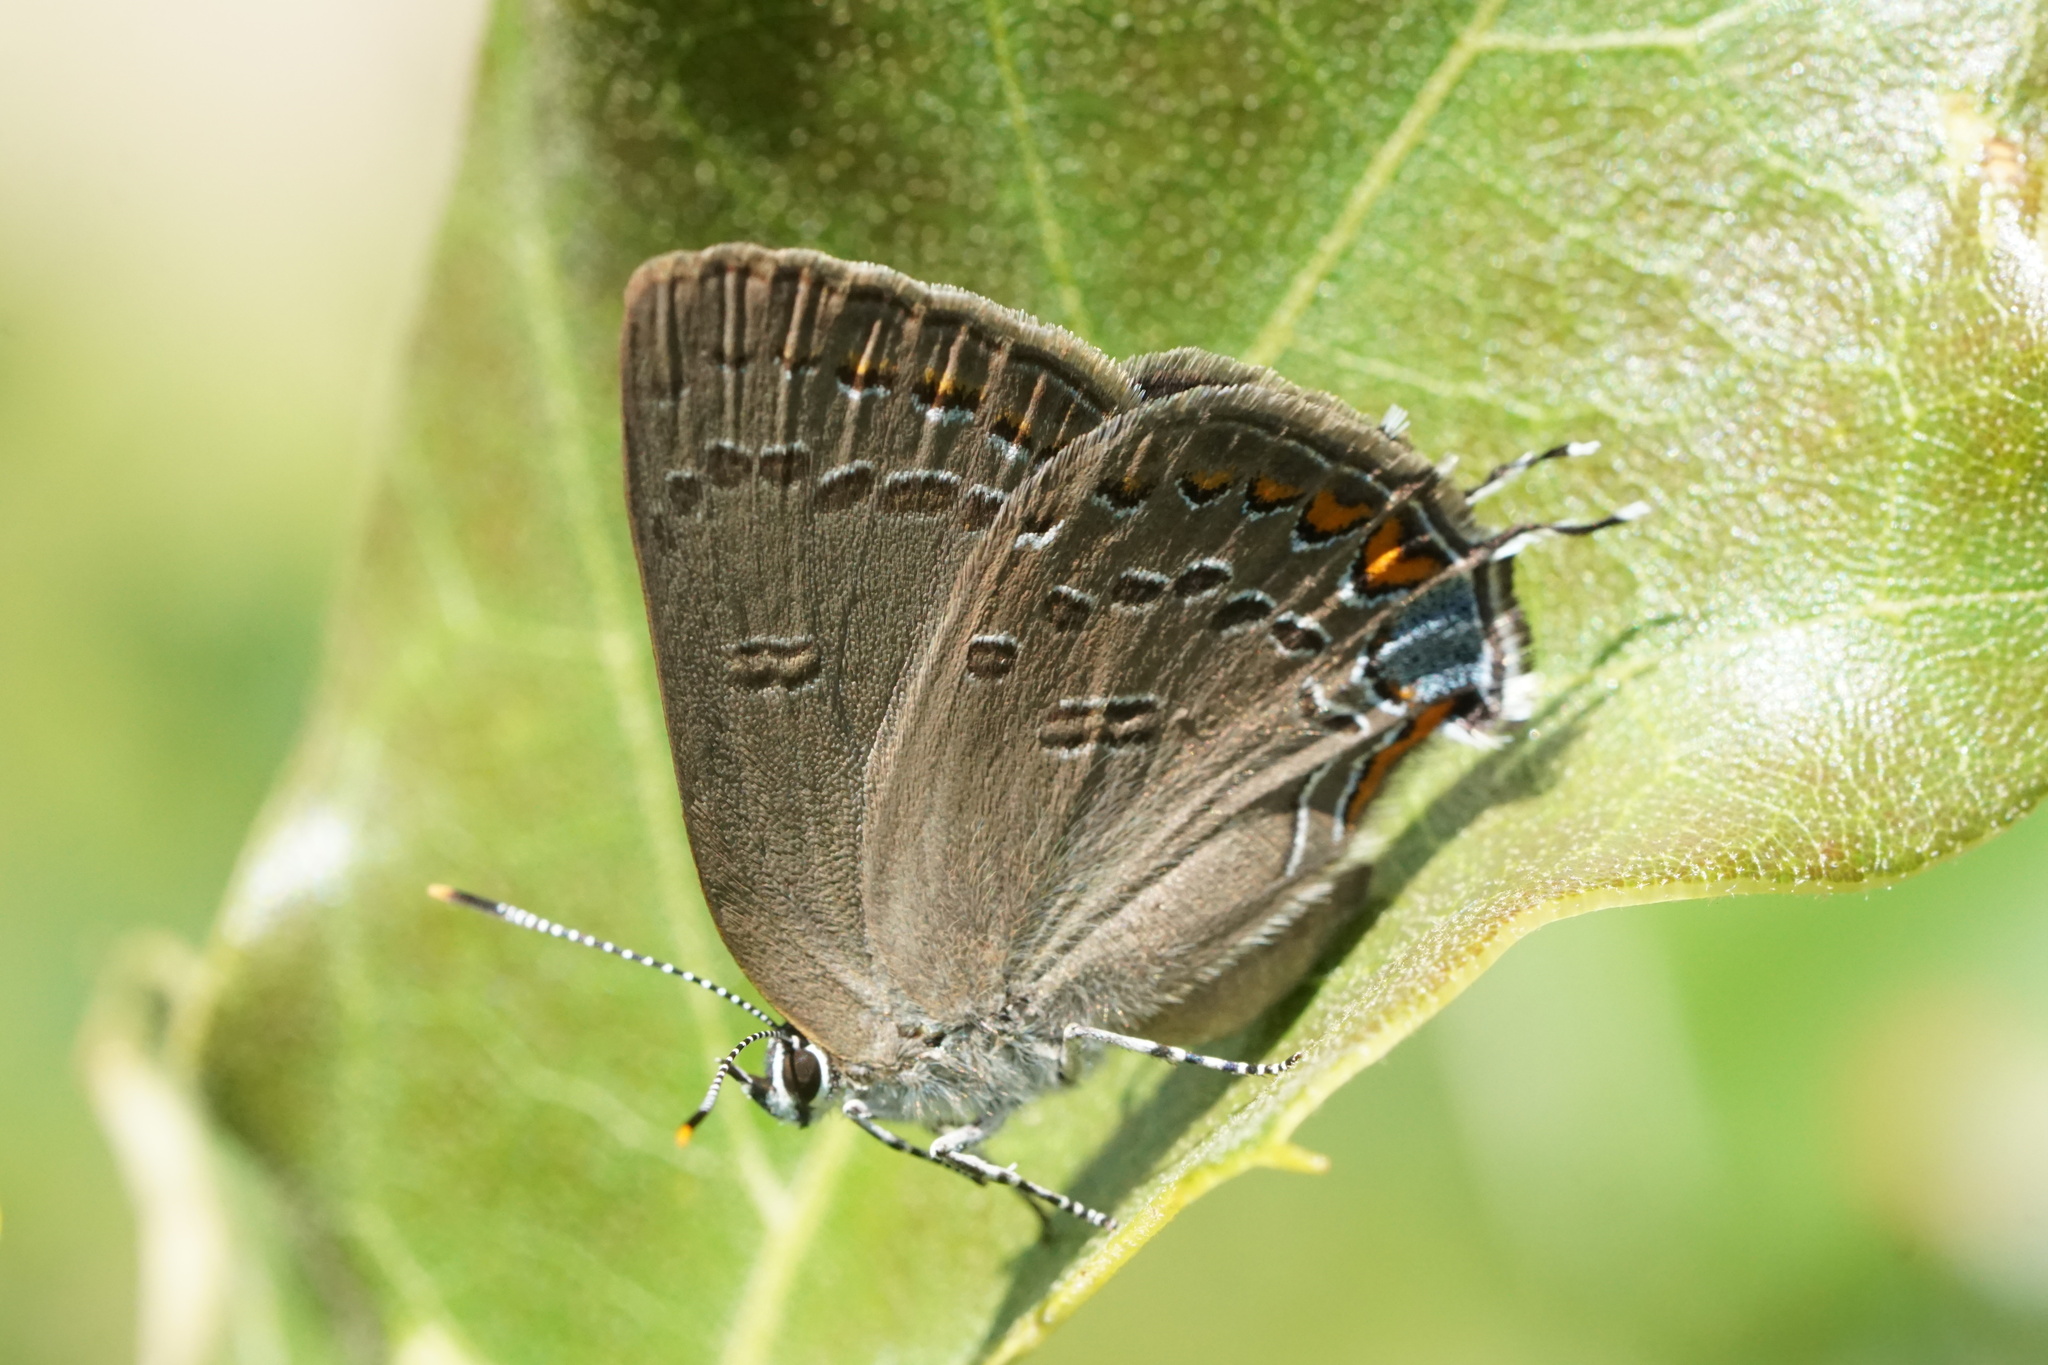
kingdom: Animalia
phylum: Arthropoda
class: Insecta
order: Lepidoptera
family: Lycaenidae
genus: Satyrium
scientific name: Satyrium edwardsii
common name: Edwards' hairstreak
